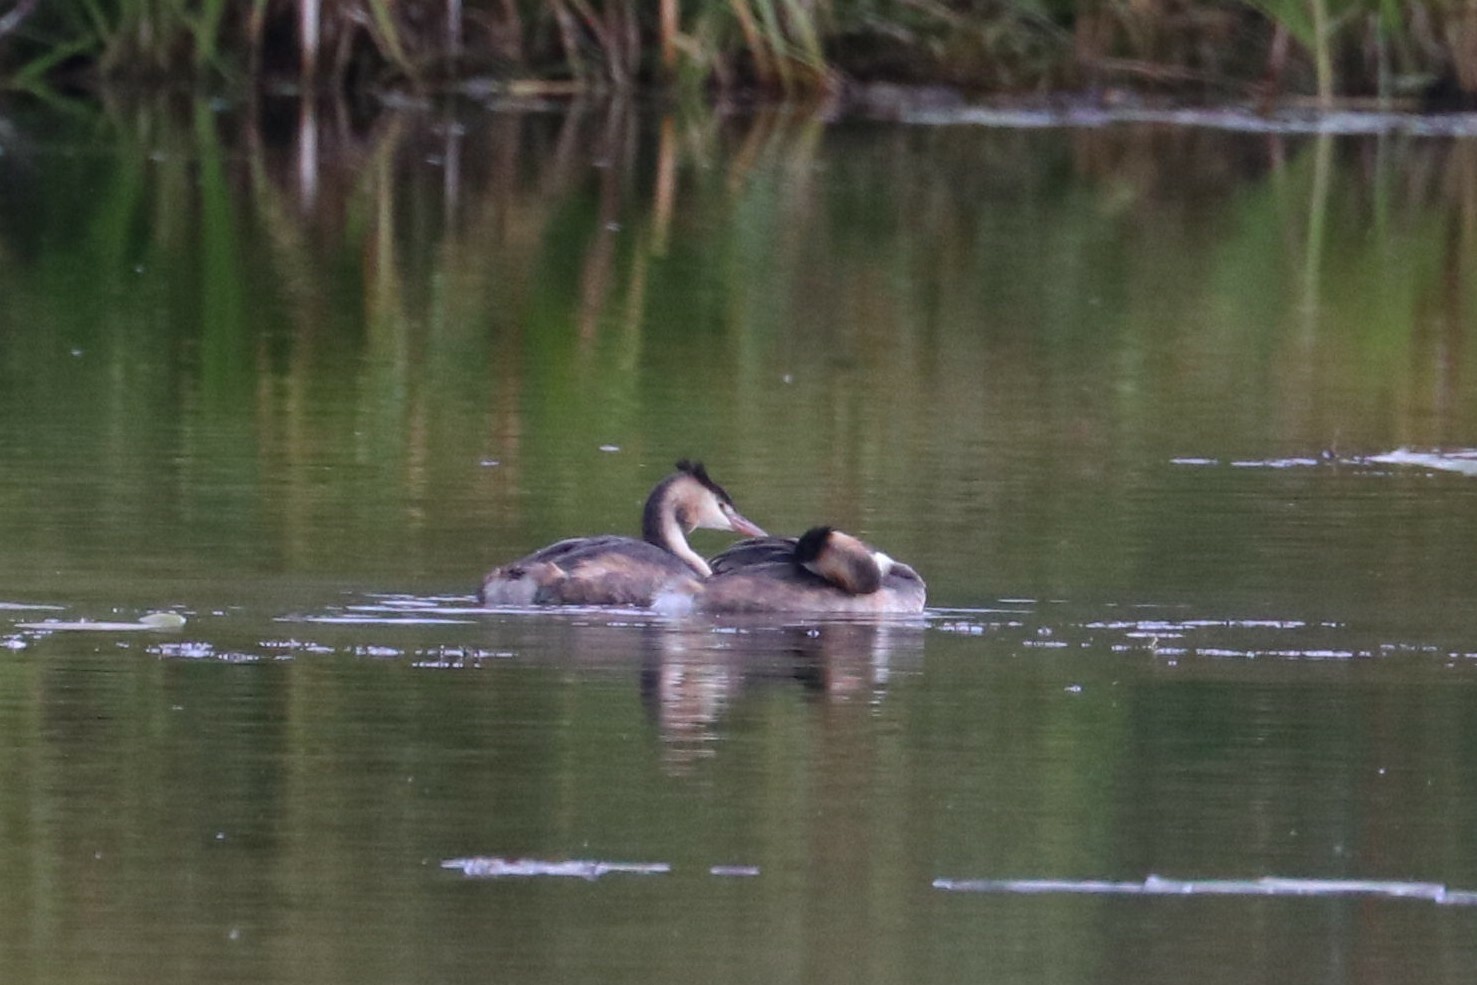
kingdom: Animalia
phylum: Chordata
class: Aves
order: Podicipediformes
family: Podicipedidae
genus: Podiceps
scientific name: Podiceps cristatus
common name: Great crested grebe
